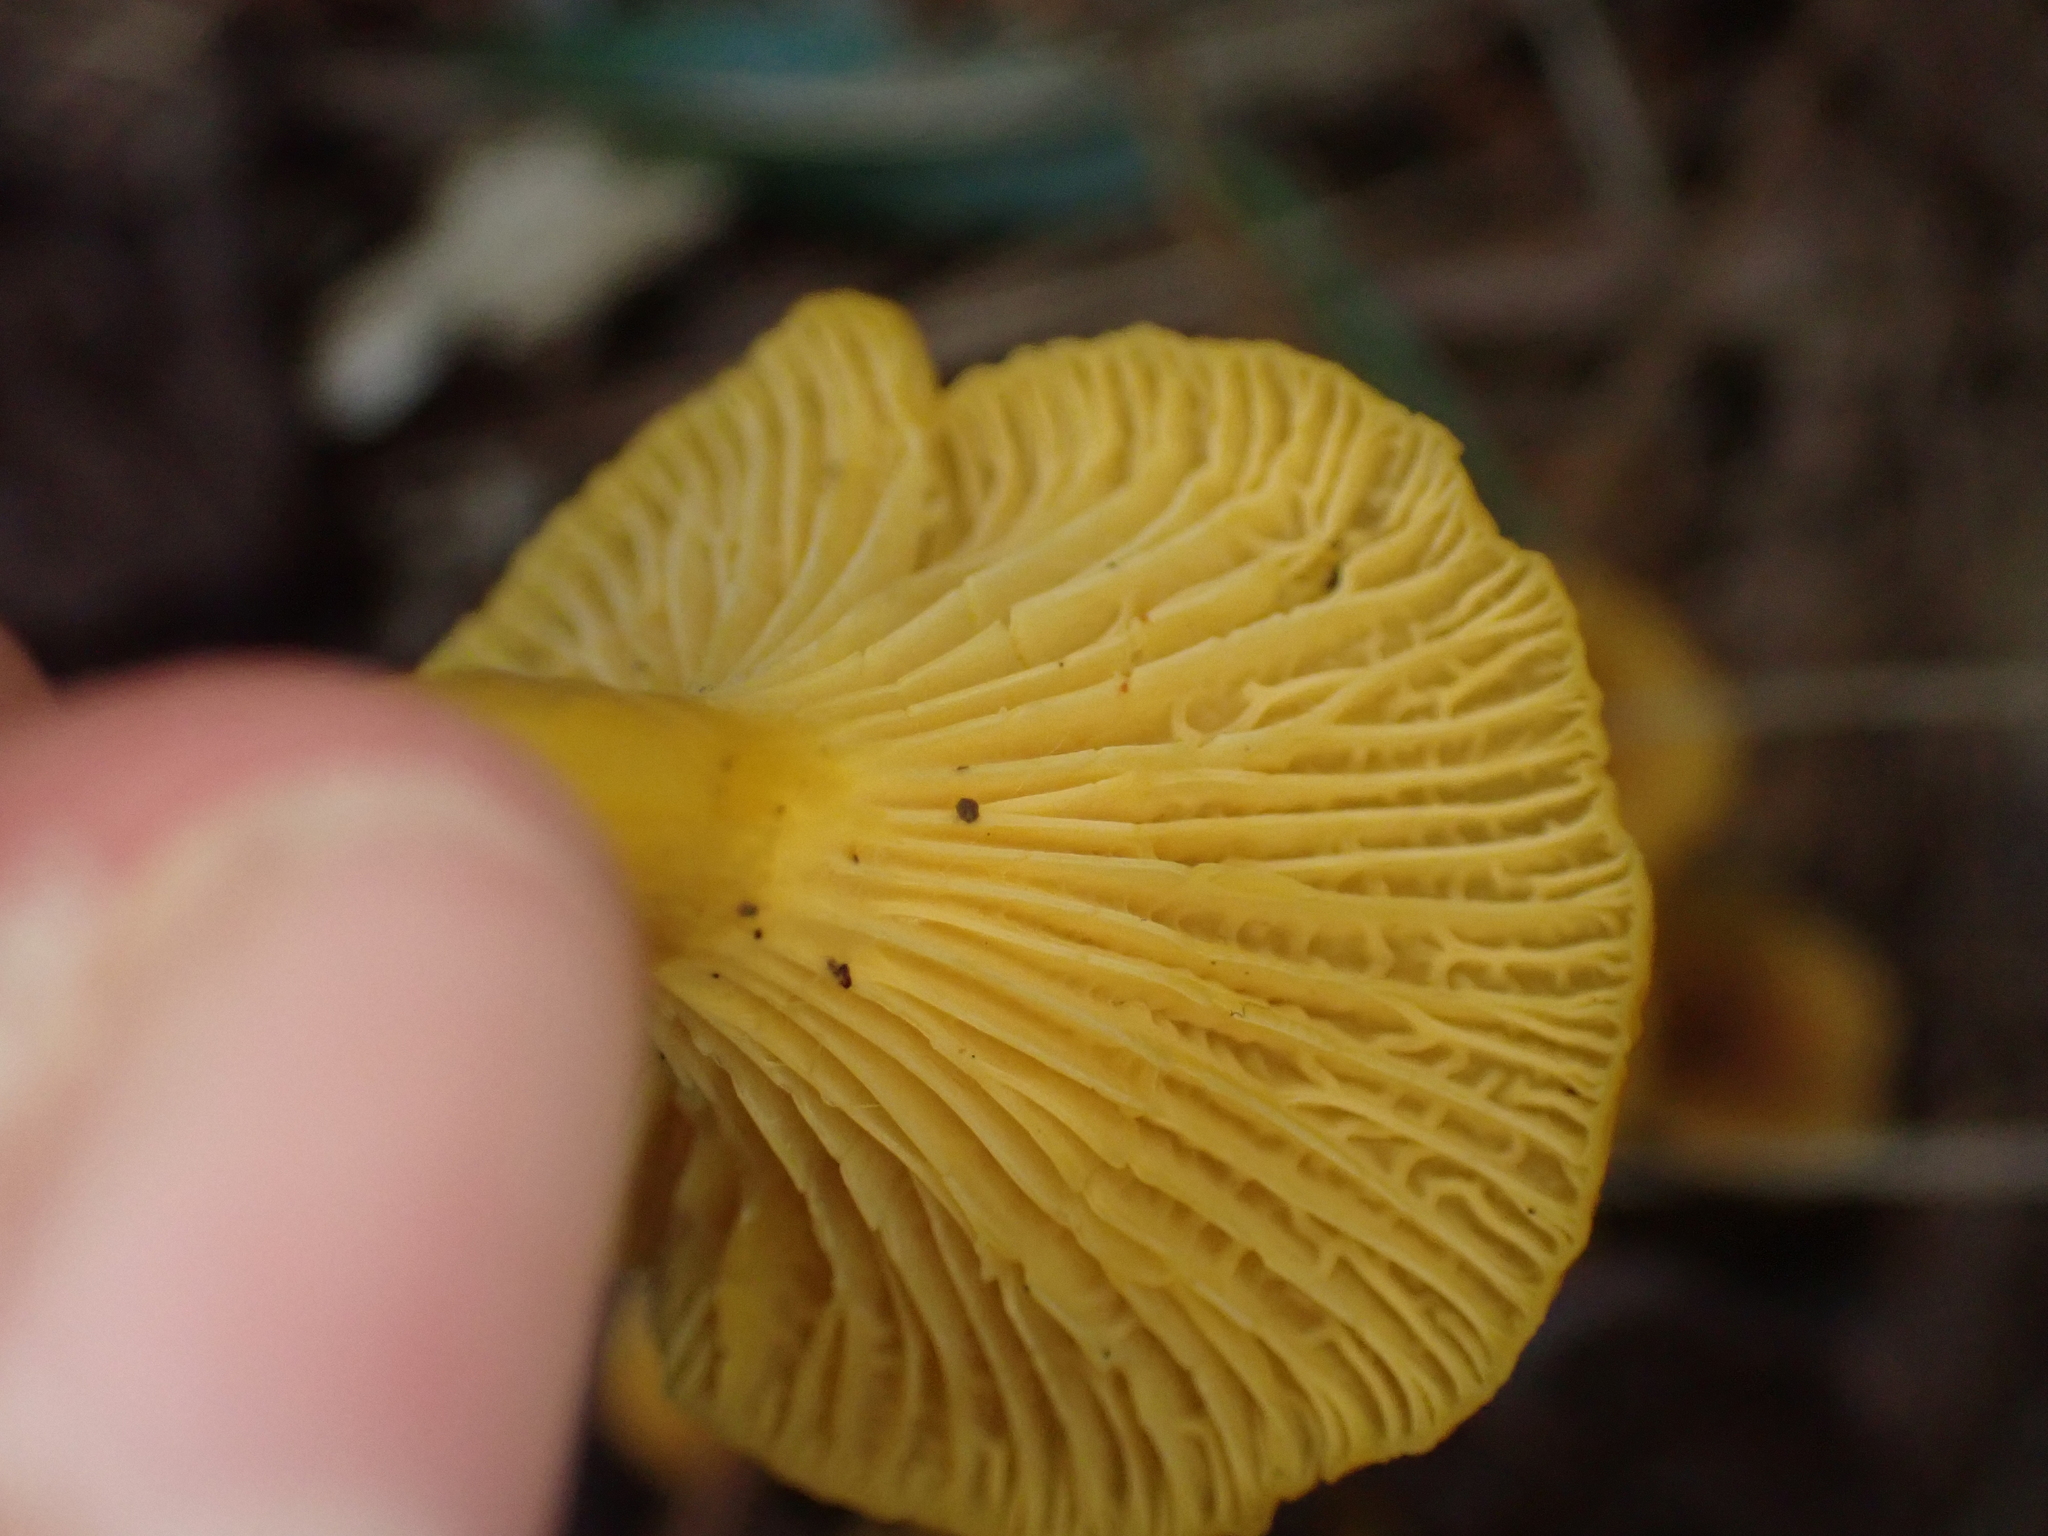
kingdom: Fungi
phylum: Basidiomycota
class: Agaricomycetes
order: Cantharellales
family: Hydnaceae
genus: Craterellus
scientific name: Craterellus ignicolor
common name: Flame chanterelle
